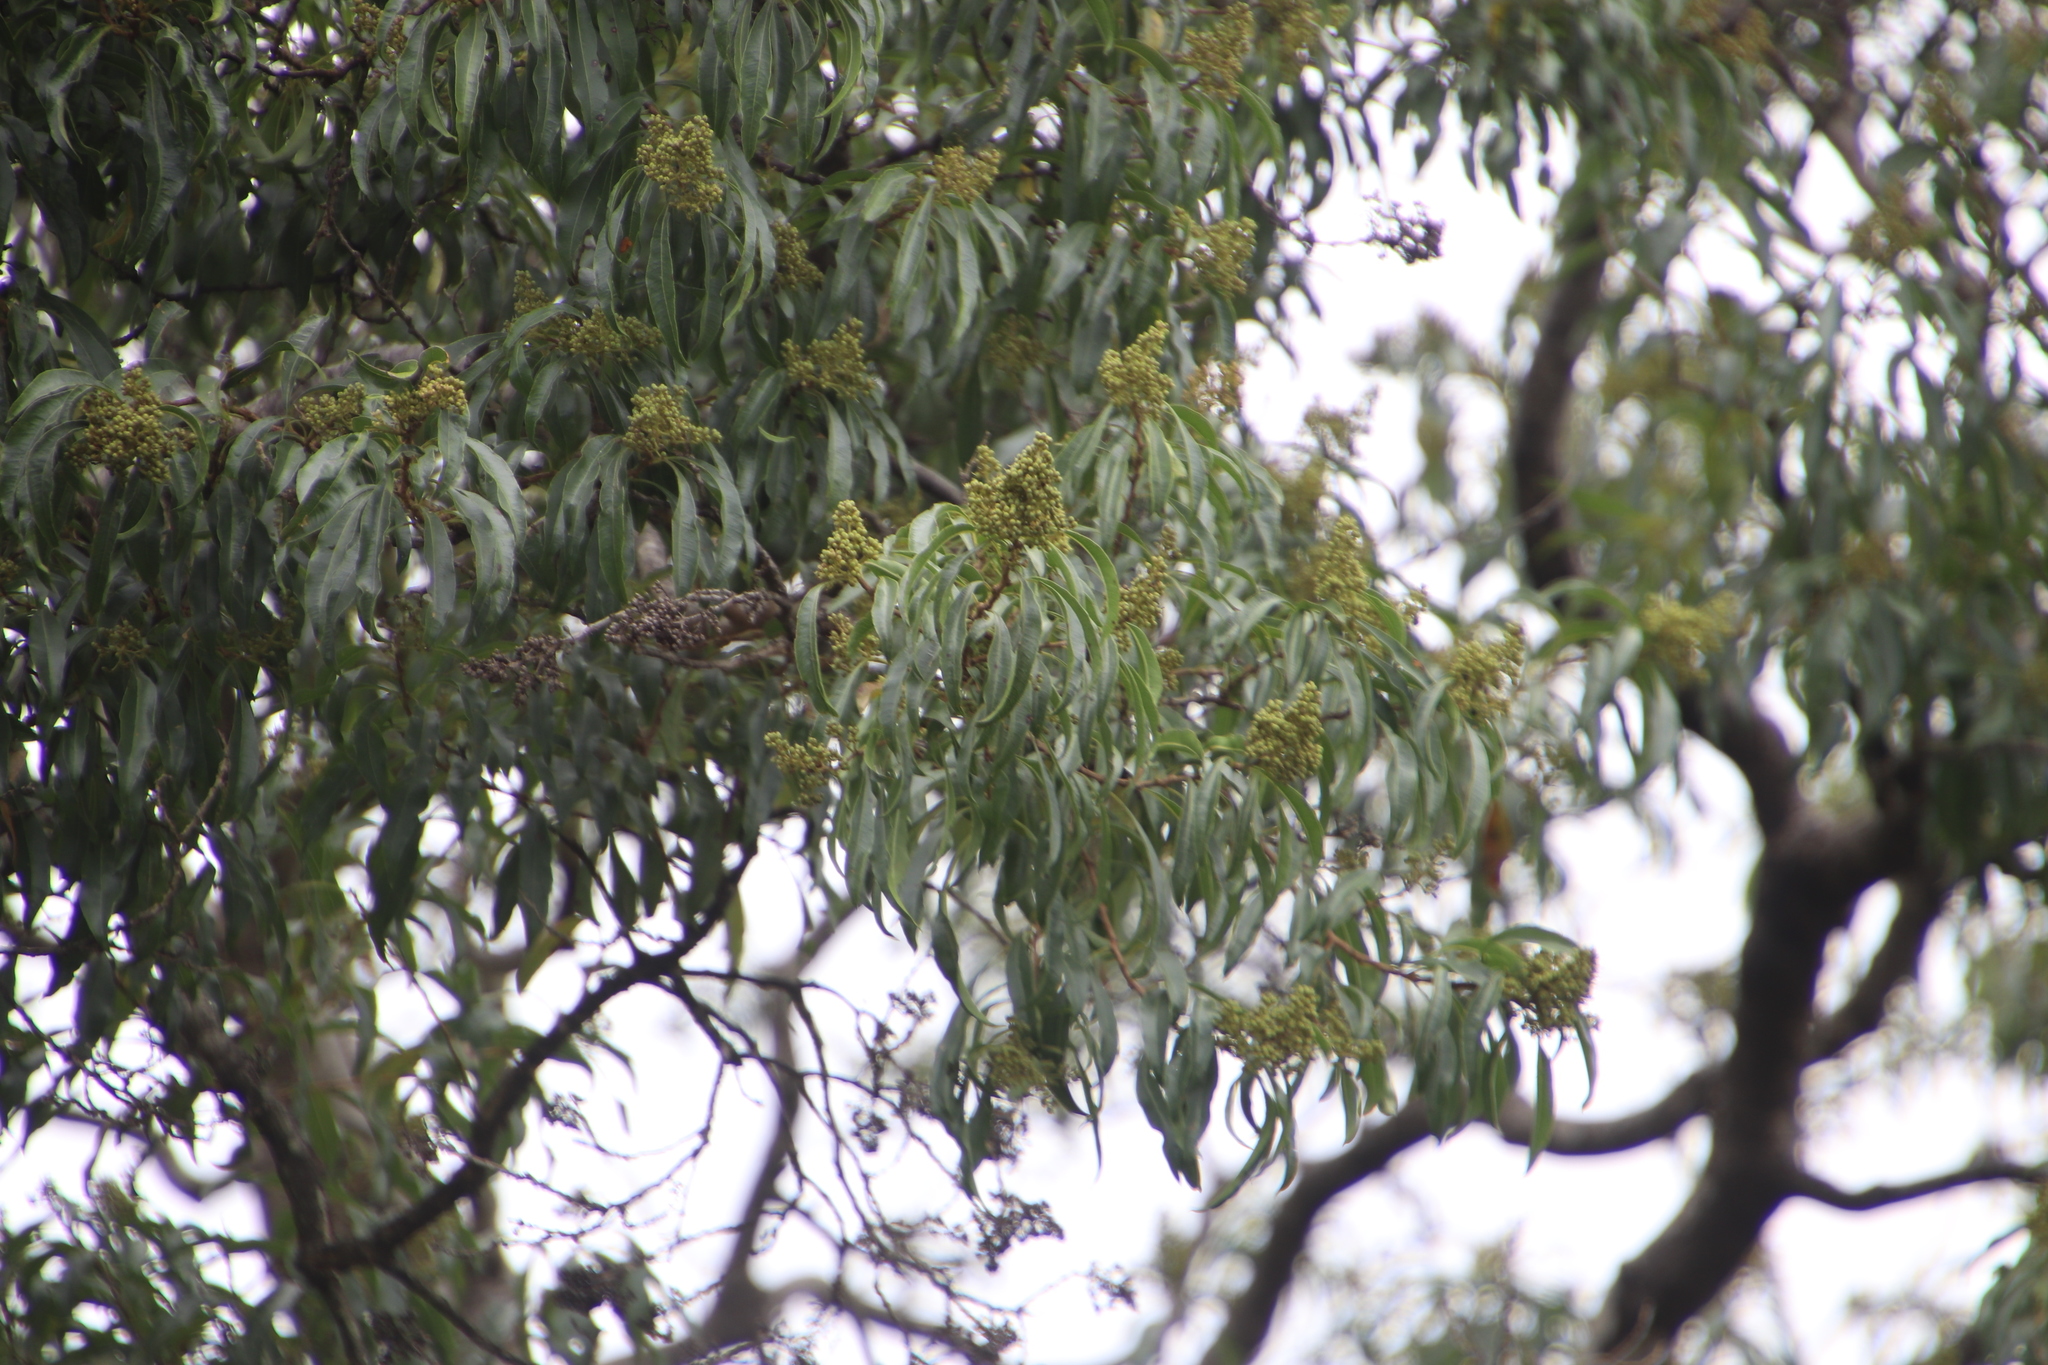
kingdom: Plantae
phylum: Tracheophyta
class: Magnoliopsida
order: Myrtales
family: Myrtaceae
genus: Heteropyxis
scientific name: Heteropyxis natalensis
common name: Lavender tree
